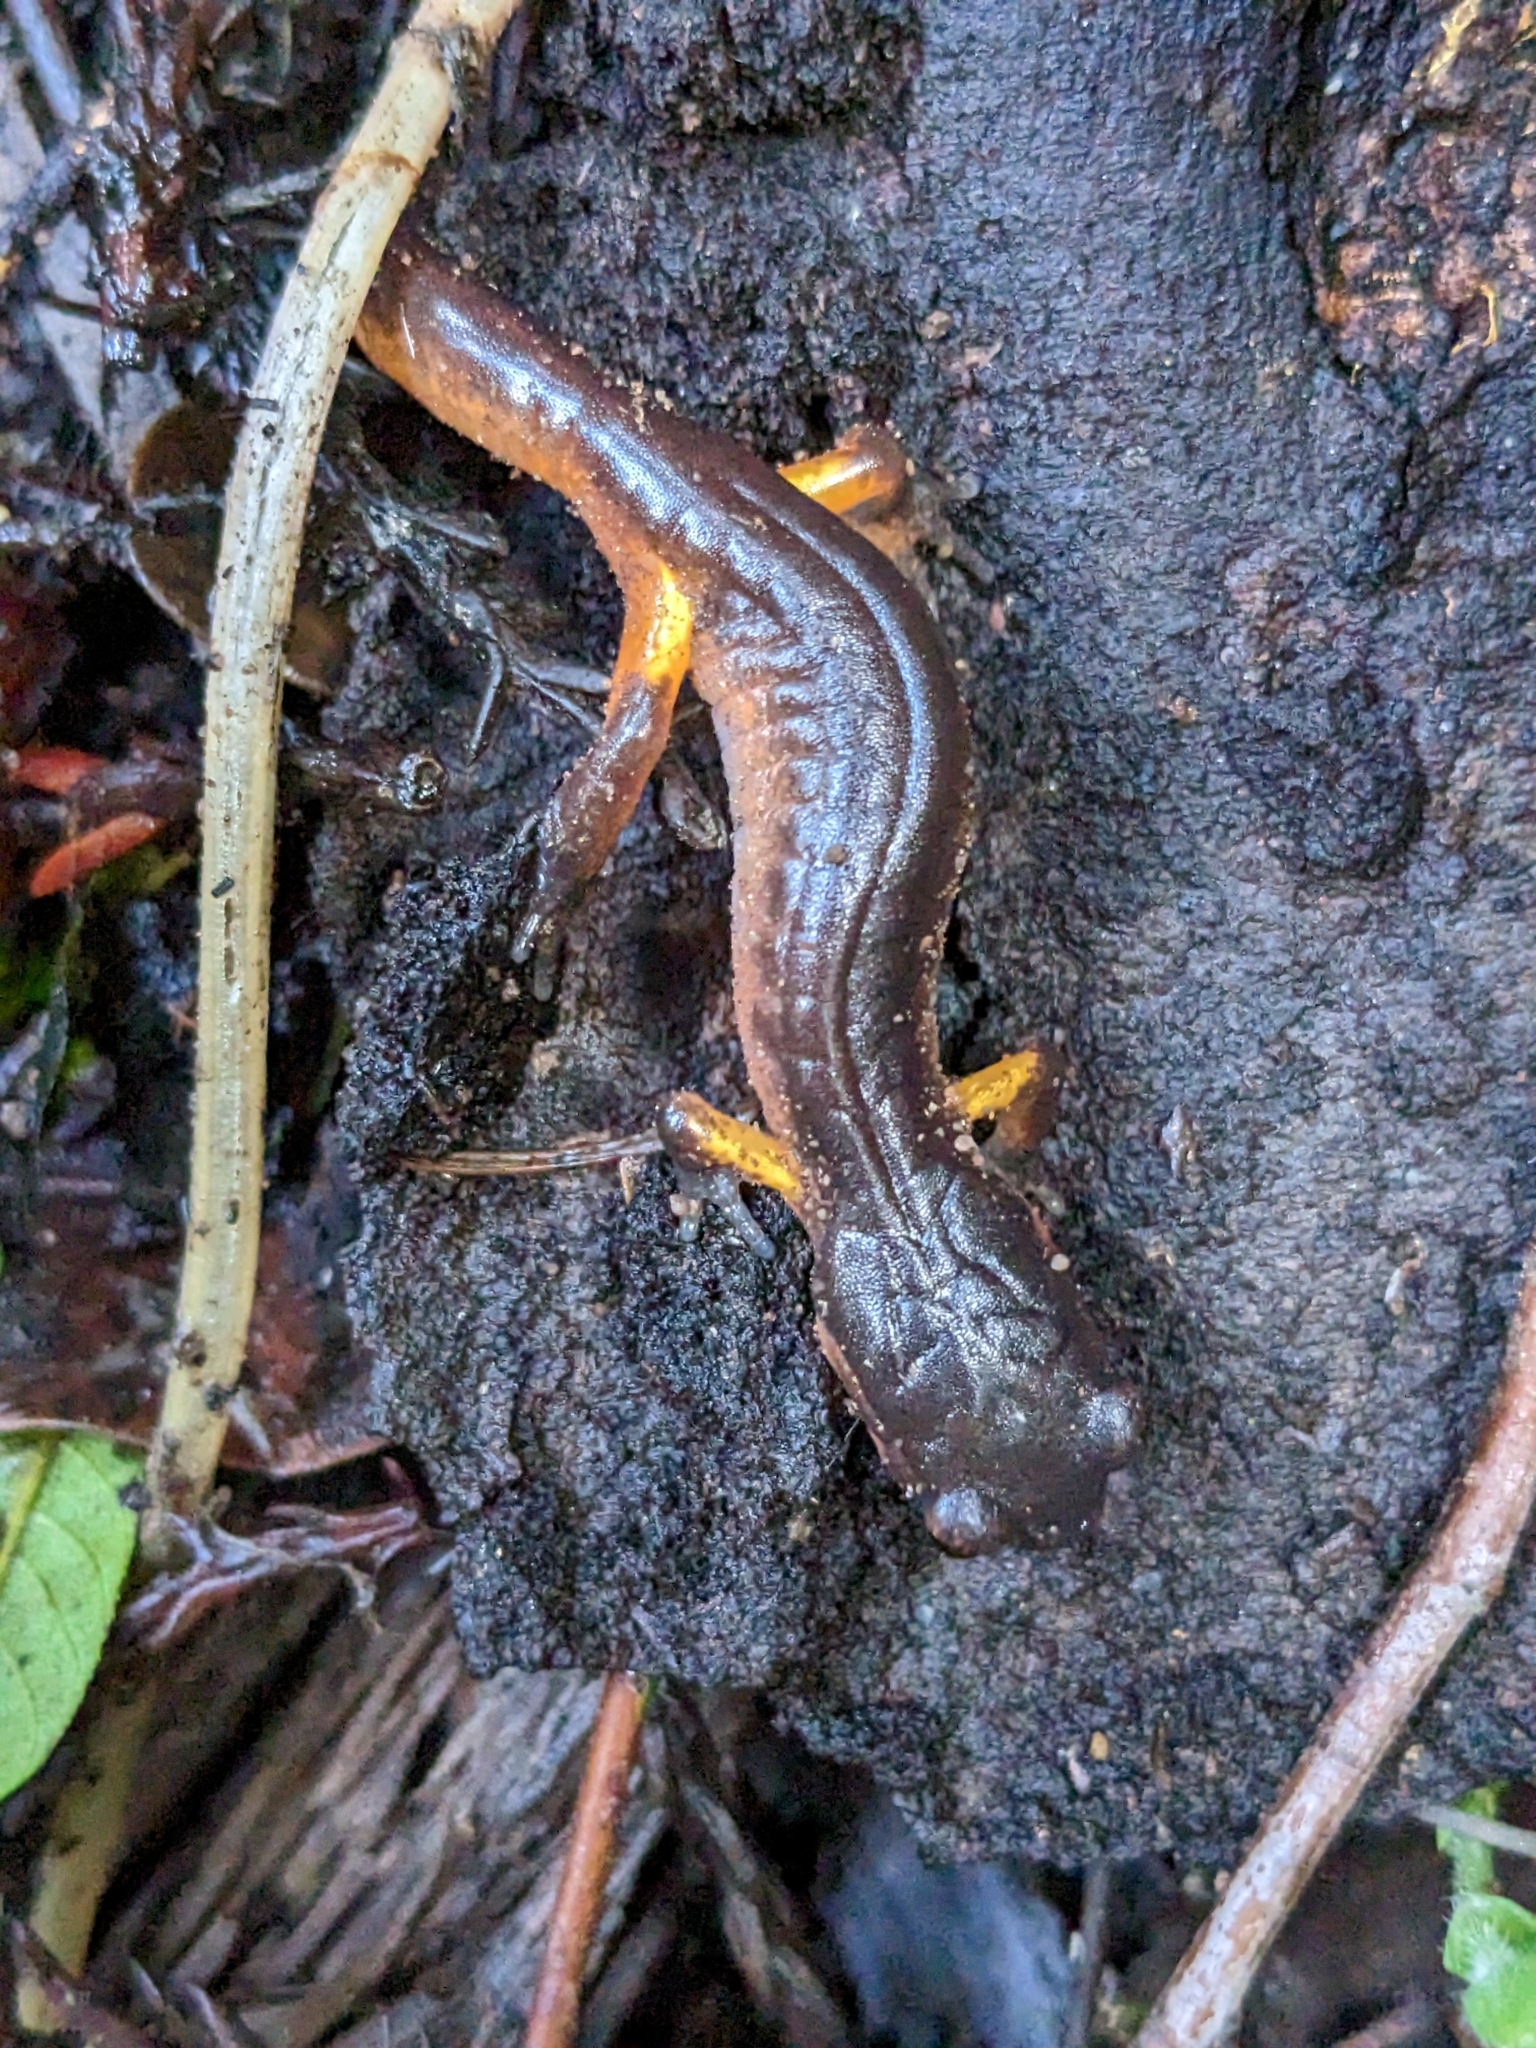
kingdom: Animalia
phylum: Chordata
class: Amphibia
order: Caudata
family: Plethodontidae
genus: Ensatina
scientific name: Ensatina eschscholtzii
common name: Ensatina
